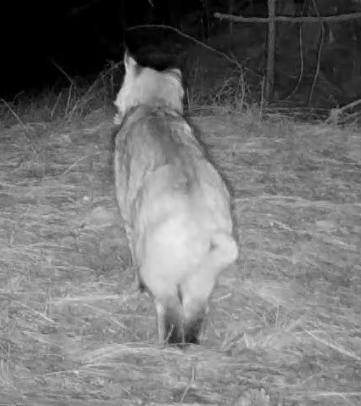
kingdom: Animalia
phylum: Chordata
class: Mammalia
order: Carnivora
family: Felidae
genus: Lynx
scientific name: Lynx rufus
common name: Bobcat
